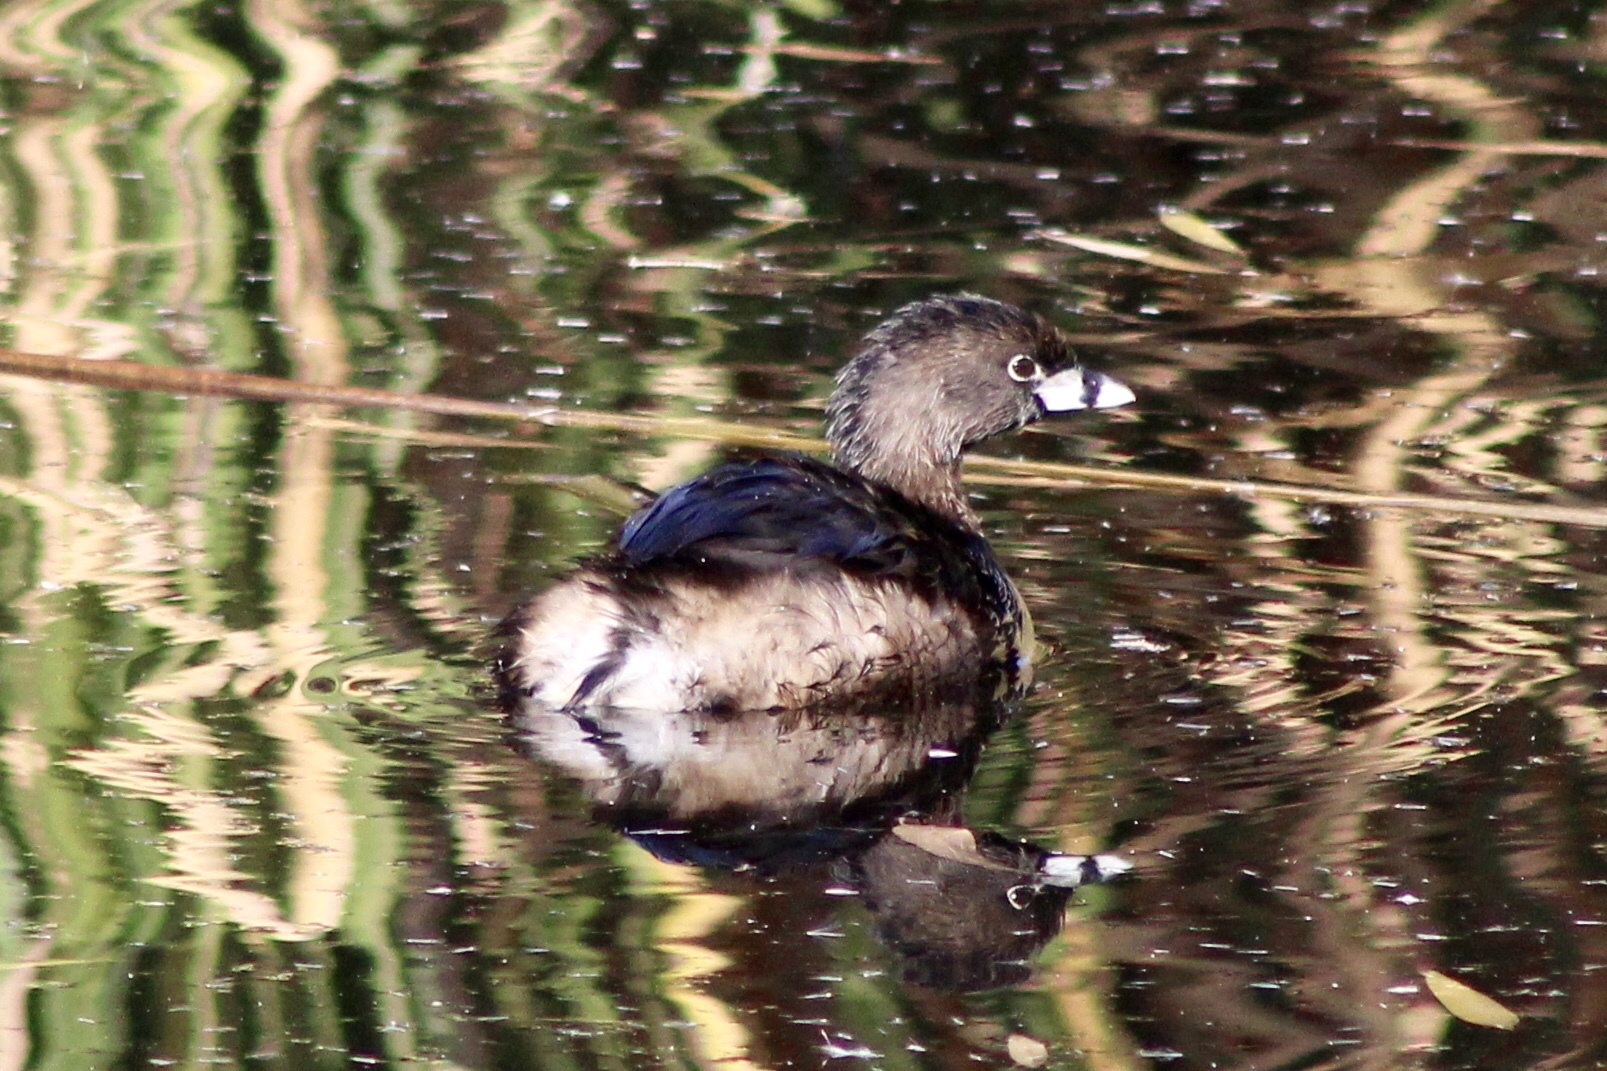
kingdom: Animalia
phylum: Chordata
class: Aves
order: Podicipediformes
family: Podicipedidae
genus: Podilymbus
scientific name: Podilymbus podiceps
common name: Pied-billed grebe
